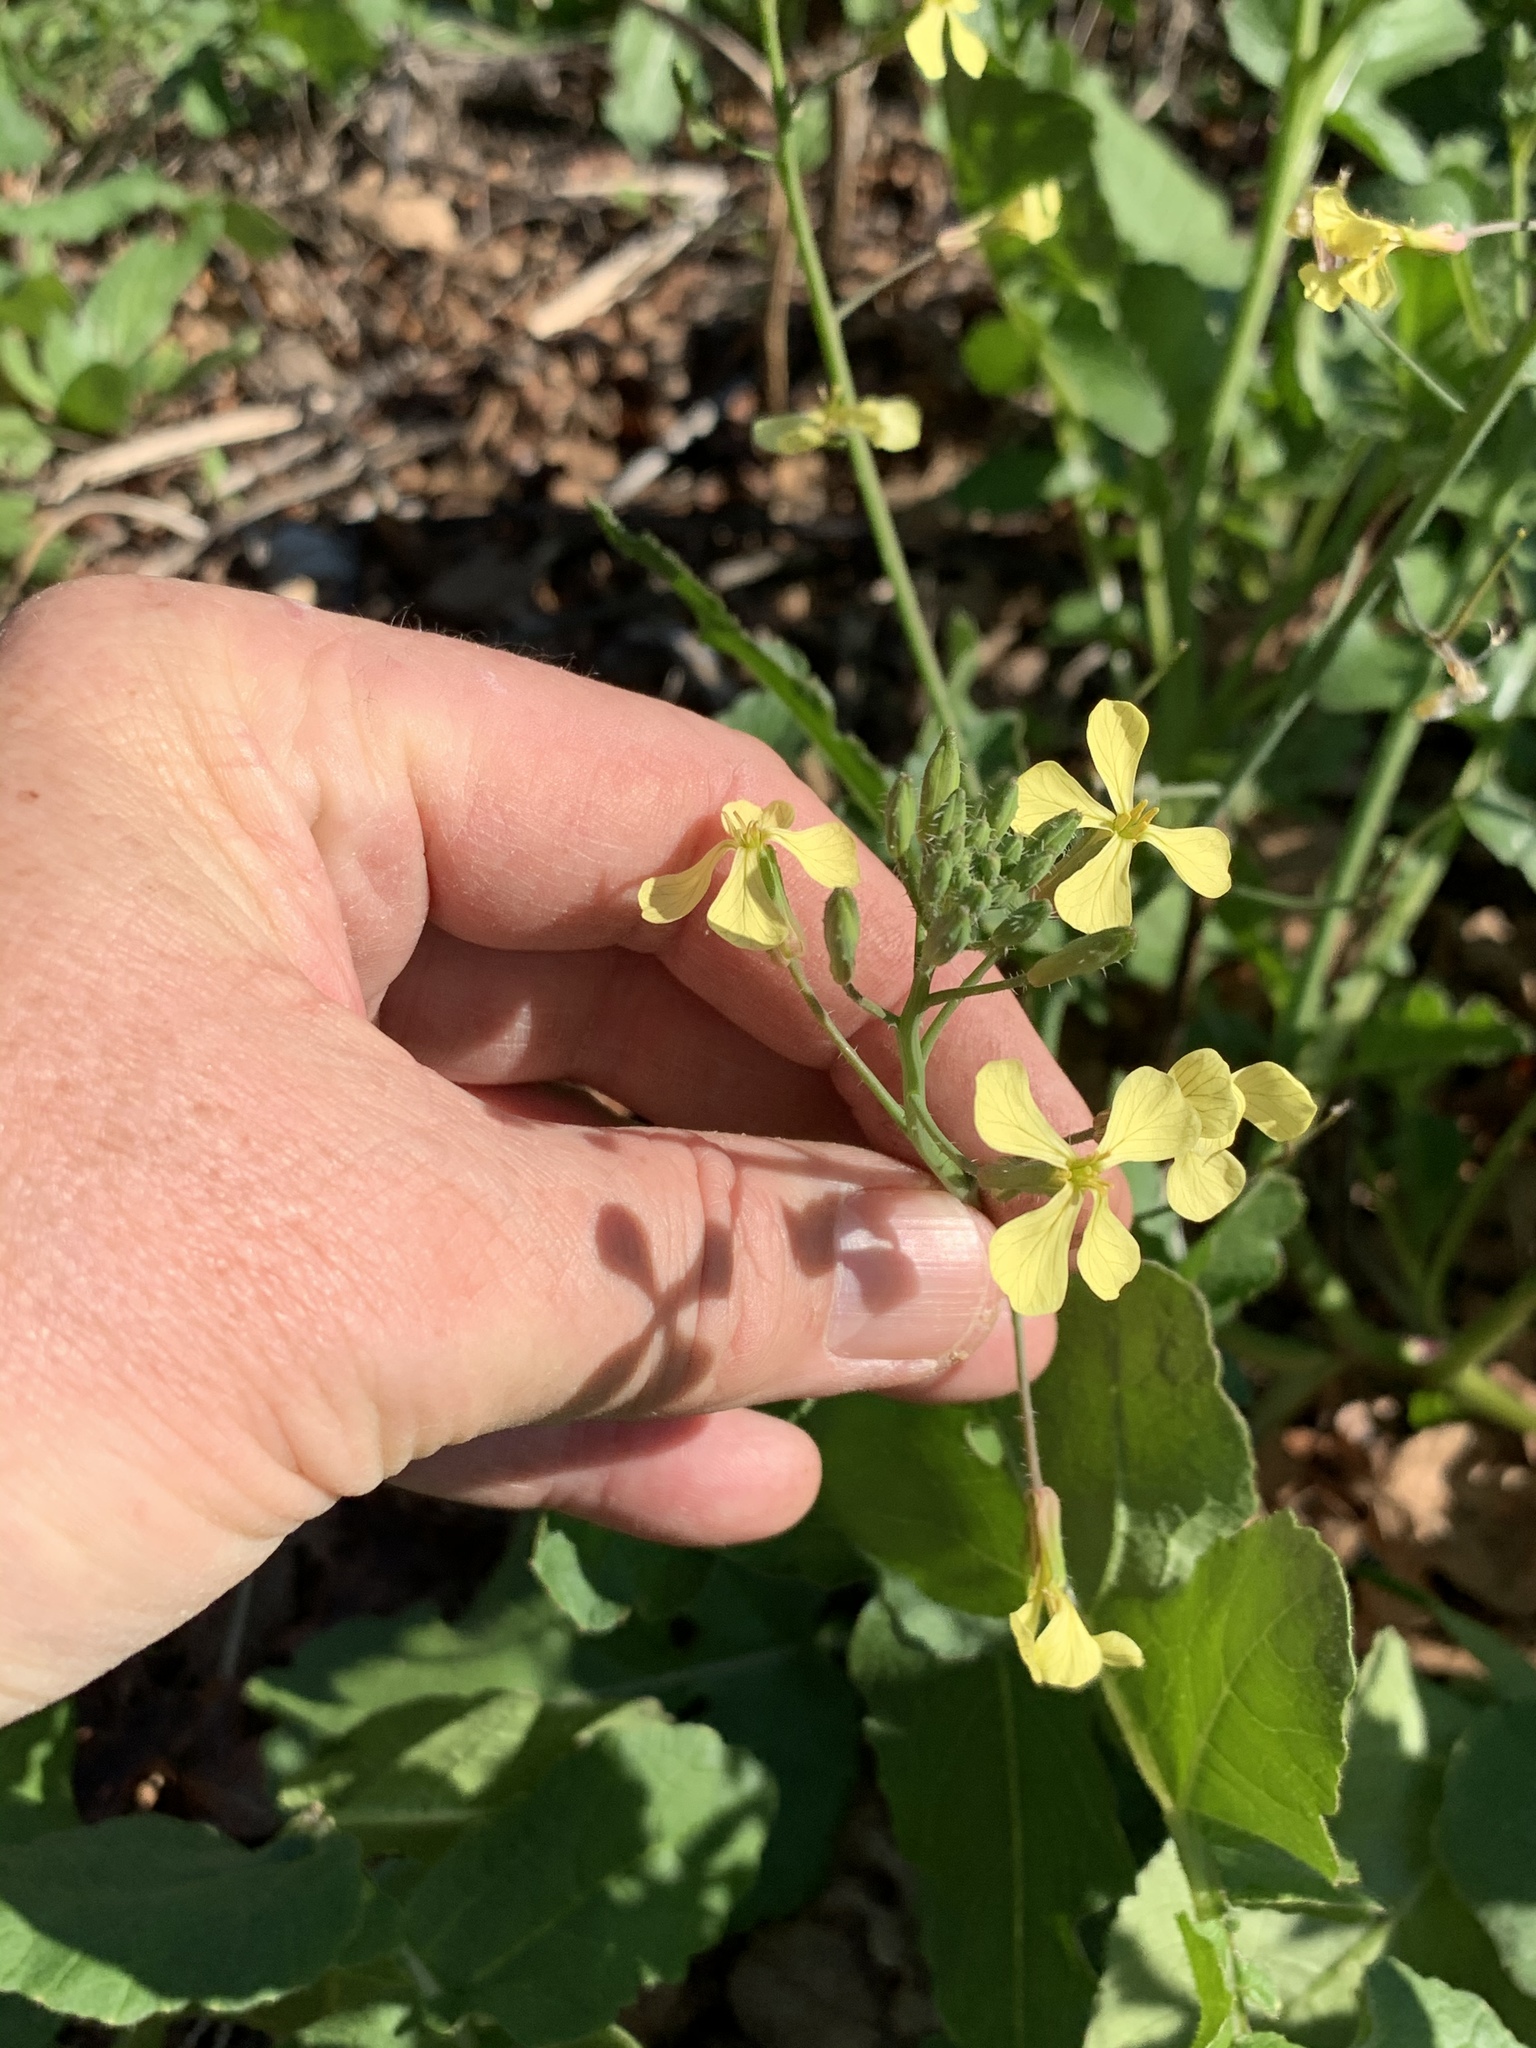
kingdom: Plantae
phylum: Tracheophyta
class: Magnoliopsida
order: Brassicales
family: Brassicaceae
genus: Raphanus
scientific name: Raphanus raphanistrum
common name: Wild radish
